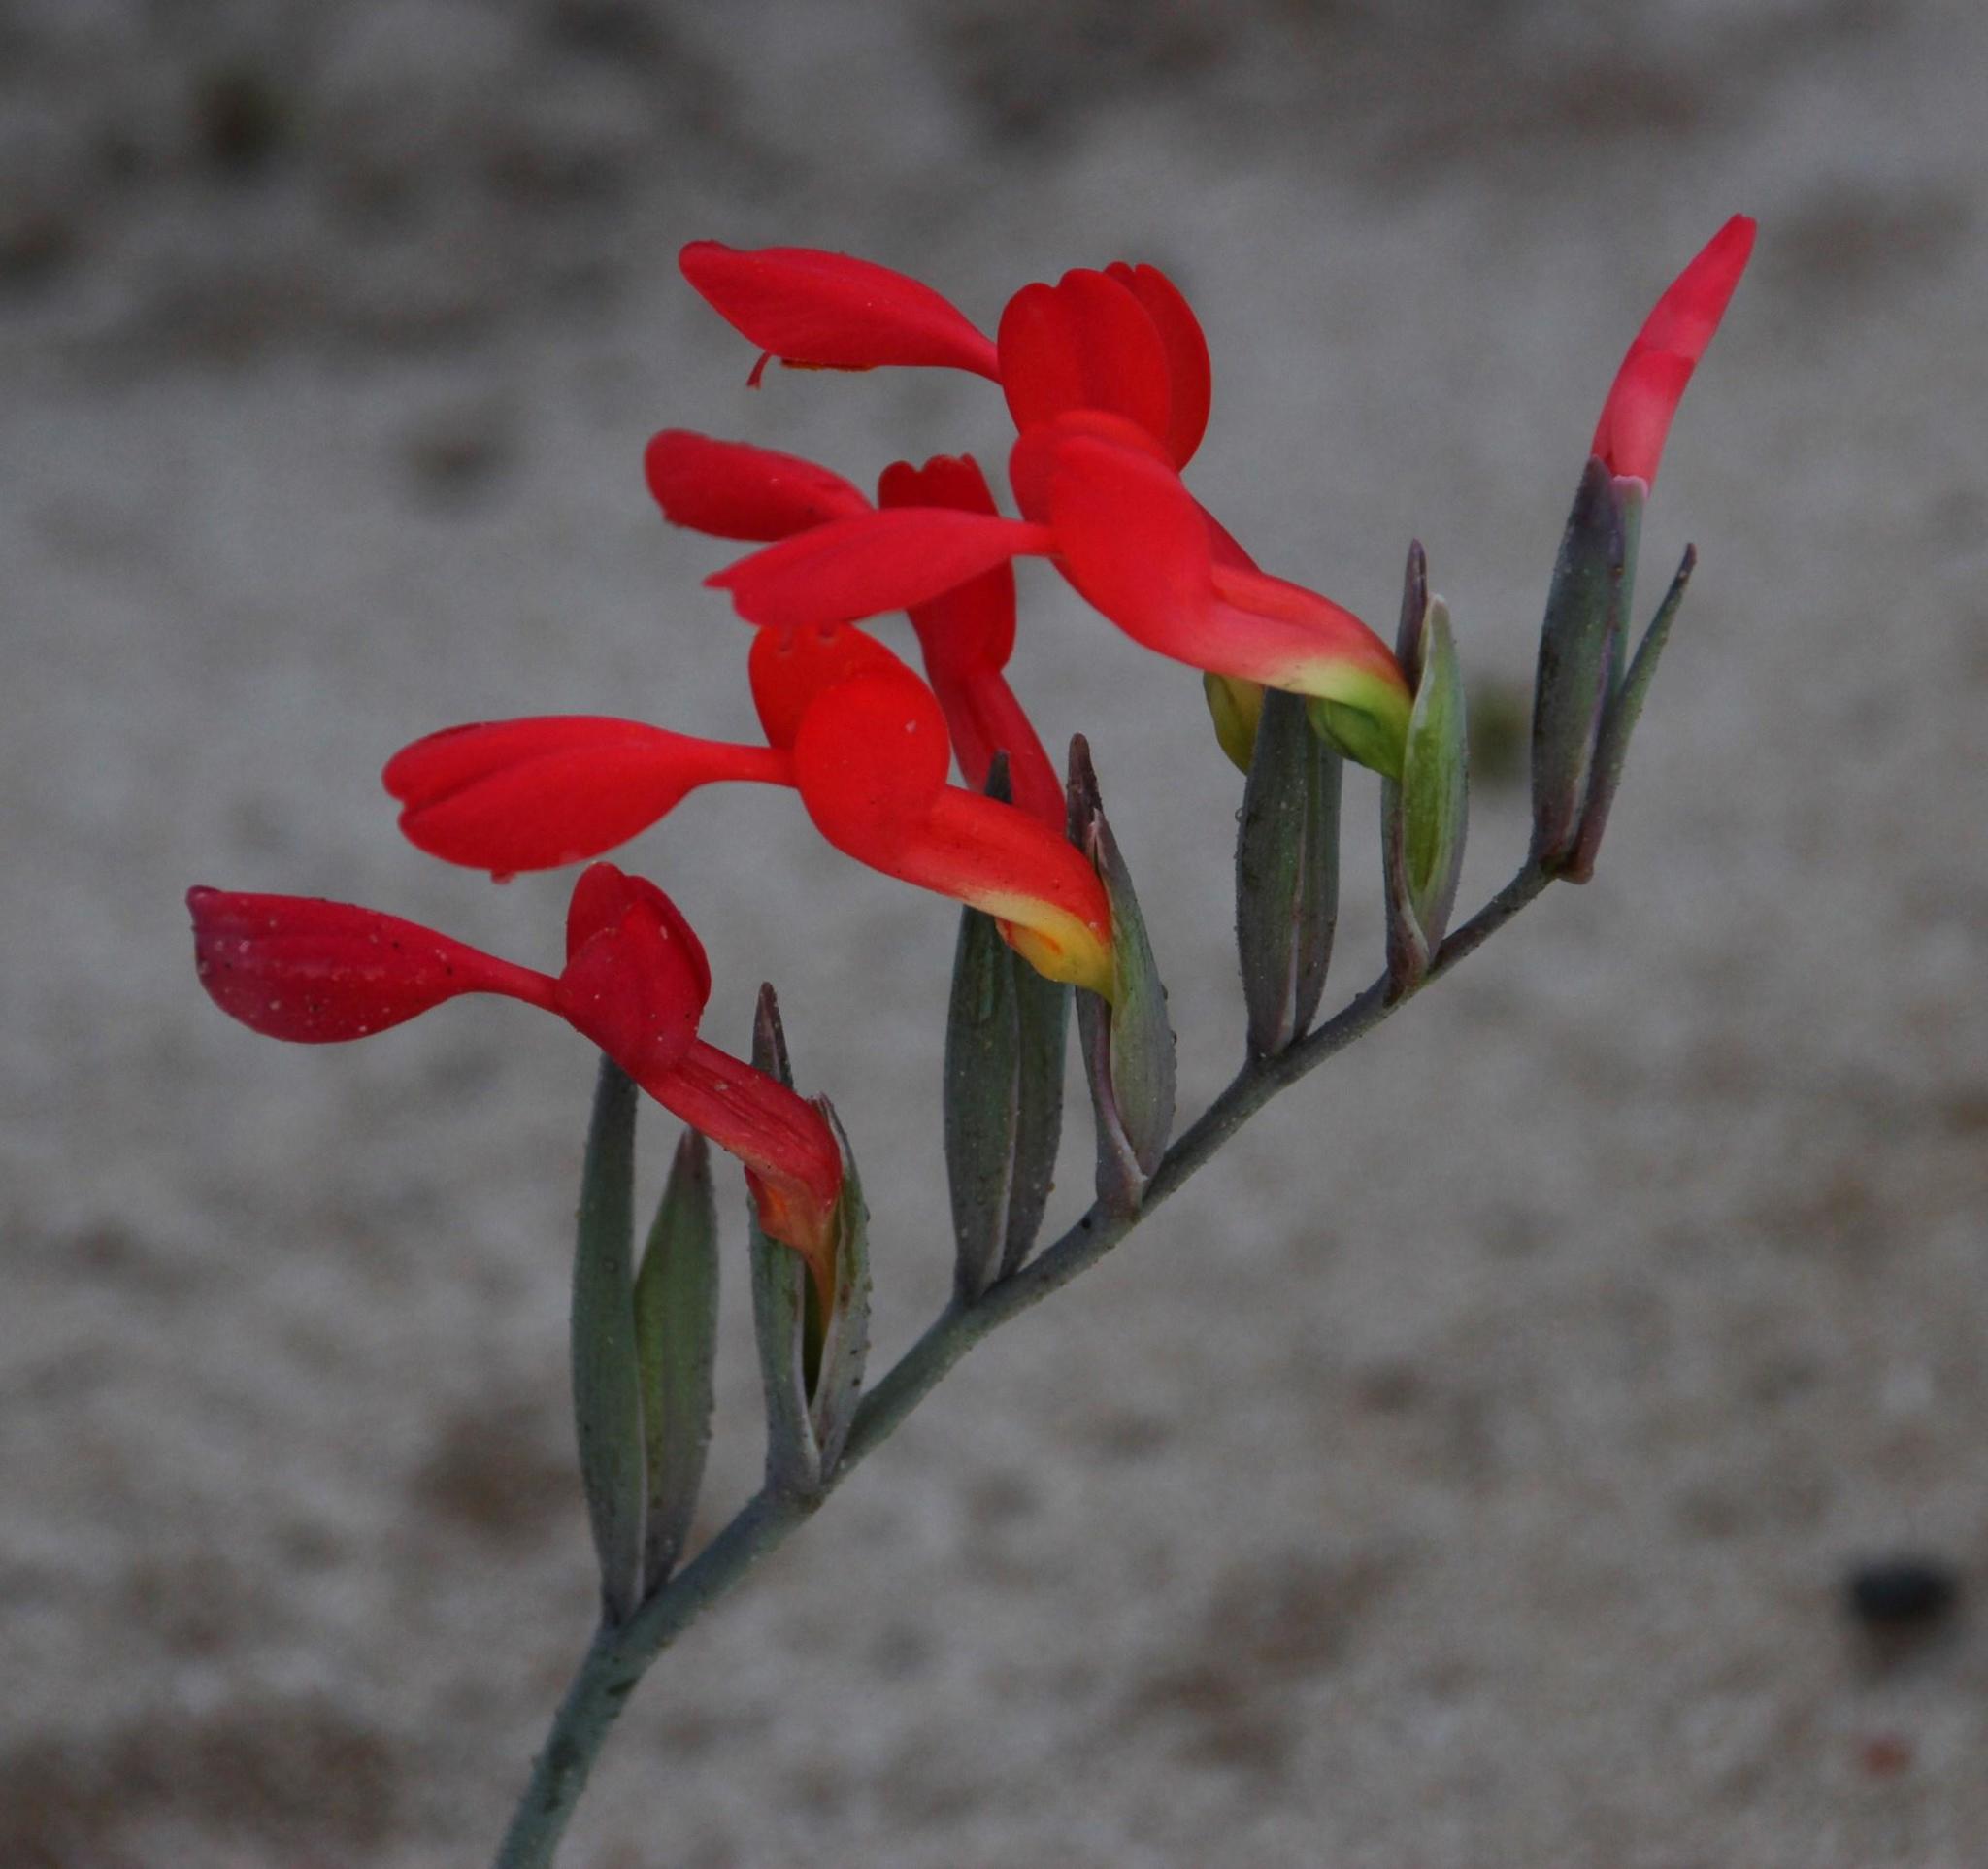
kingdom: Plantae
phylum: Tracheophyta
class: Liliopsida
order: Asparagales
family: Iridaceae
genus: Gladiolus
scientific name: Gladiolus cunonius
